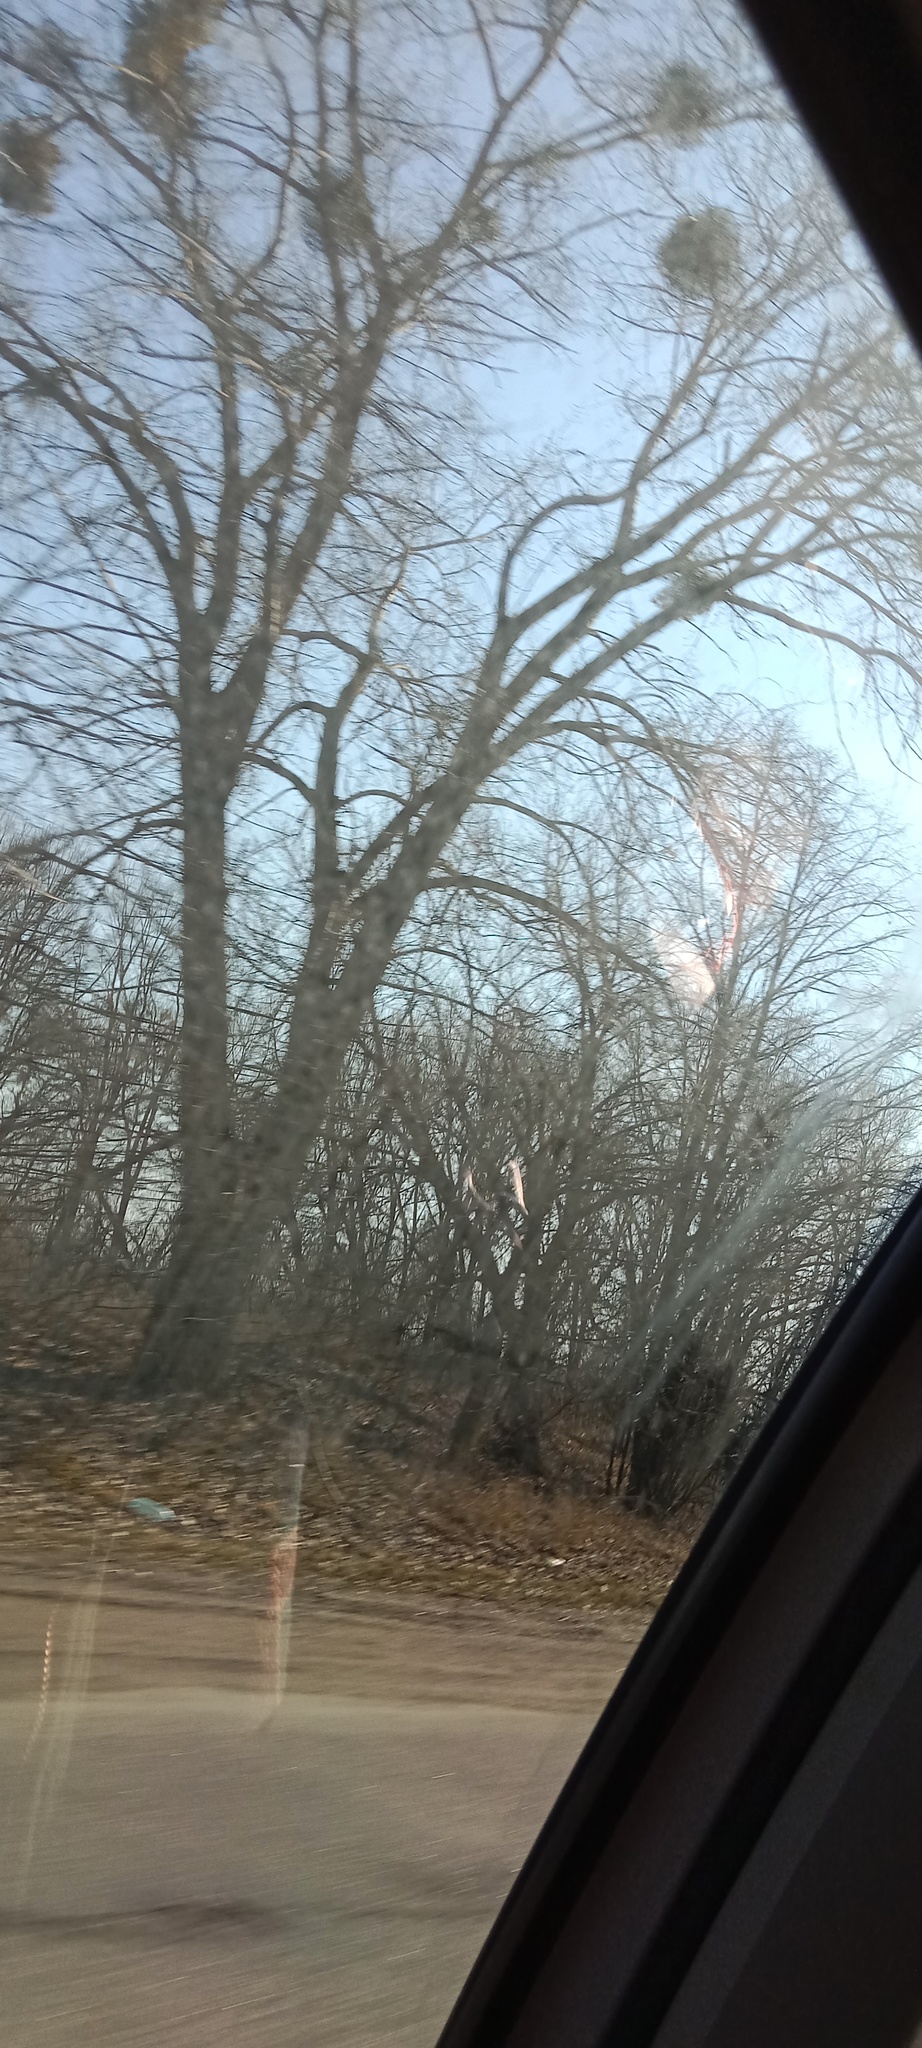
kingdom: Plantae
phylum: Tracheophyta
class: Magnoliopsida
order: Santalales
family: Viscaceae
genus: Viscum
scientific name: Viscum album
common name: Mistletoe
